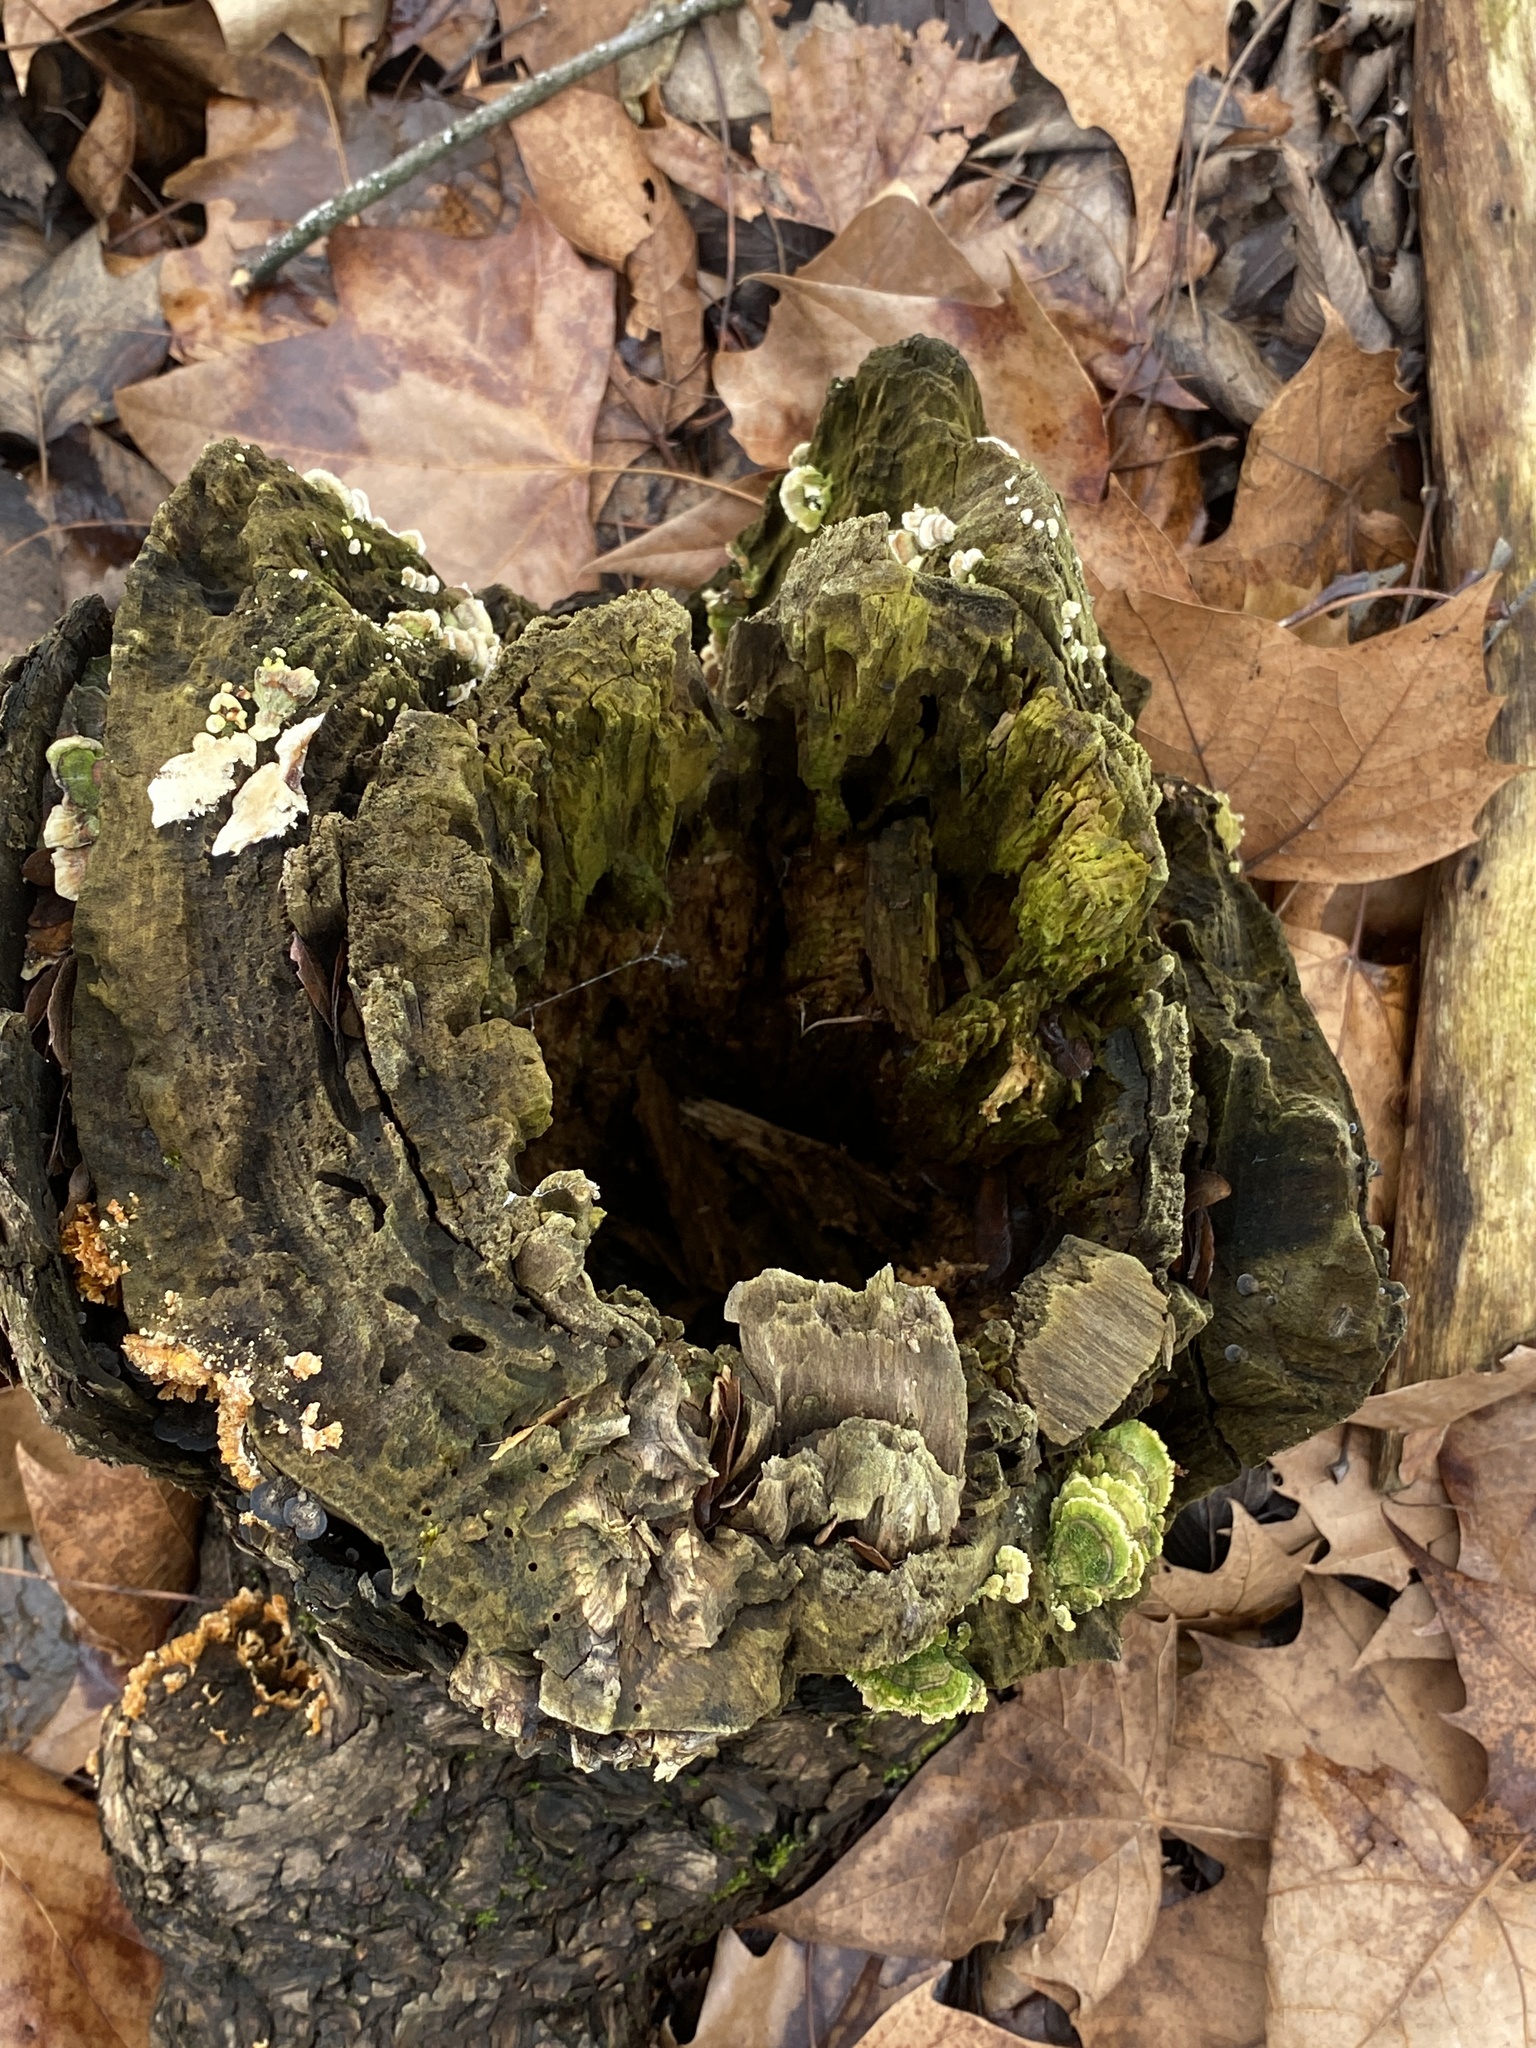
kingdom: Fungi
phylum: Basidiomycota
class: Agaricomycetes
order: Hymenochaetales
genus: Trichaptum
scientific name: Trichaptum biforme
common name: Violet-toothed polypore
